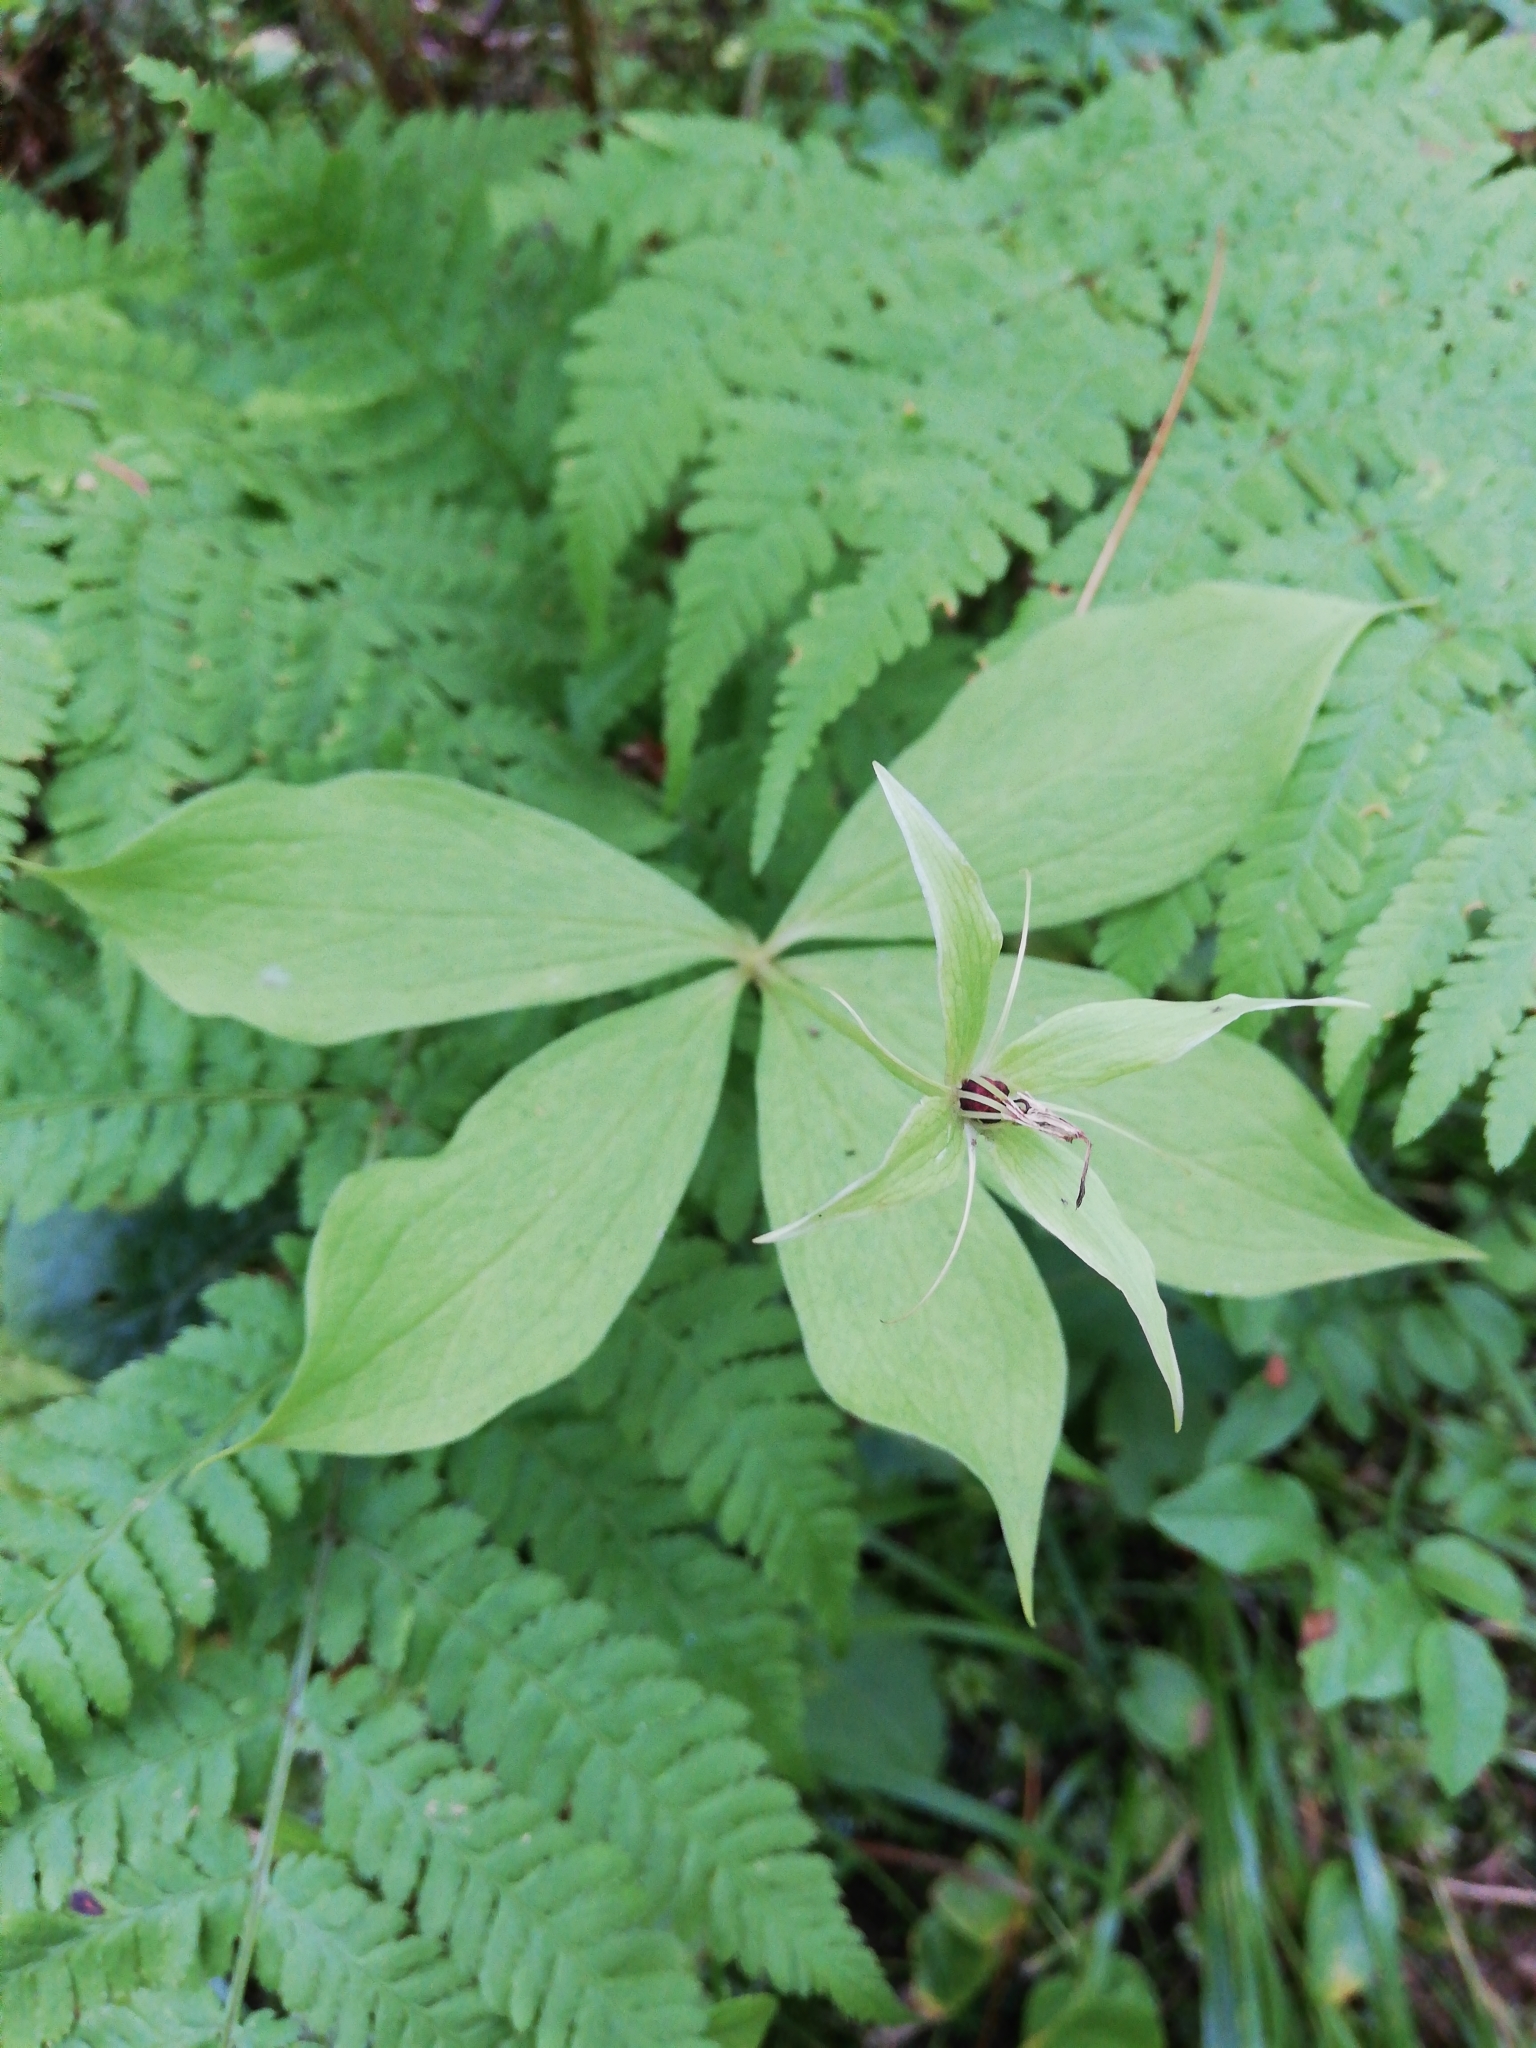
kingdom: Plantae
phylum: Tracheophyta
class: Liliopsida
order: Liliales
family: Melanthiaceae
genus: Paris
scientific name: Paris quadrifolia
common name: Herb-paris
